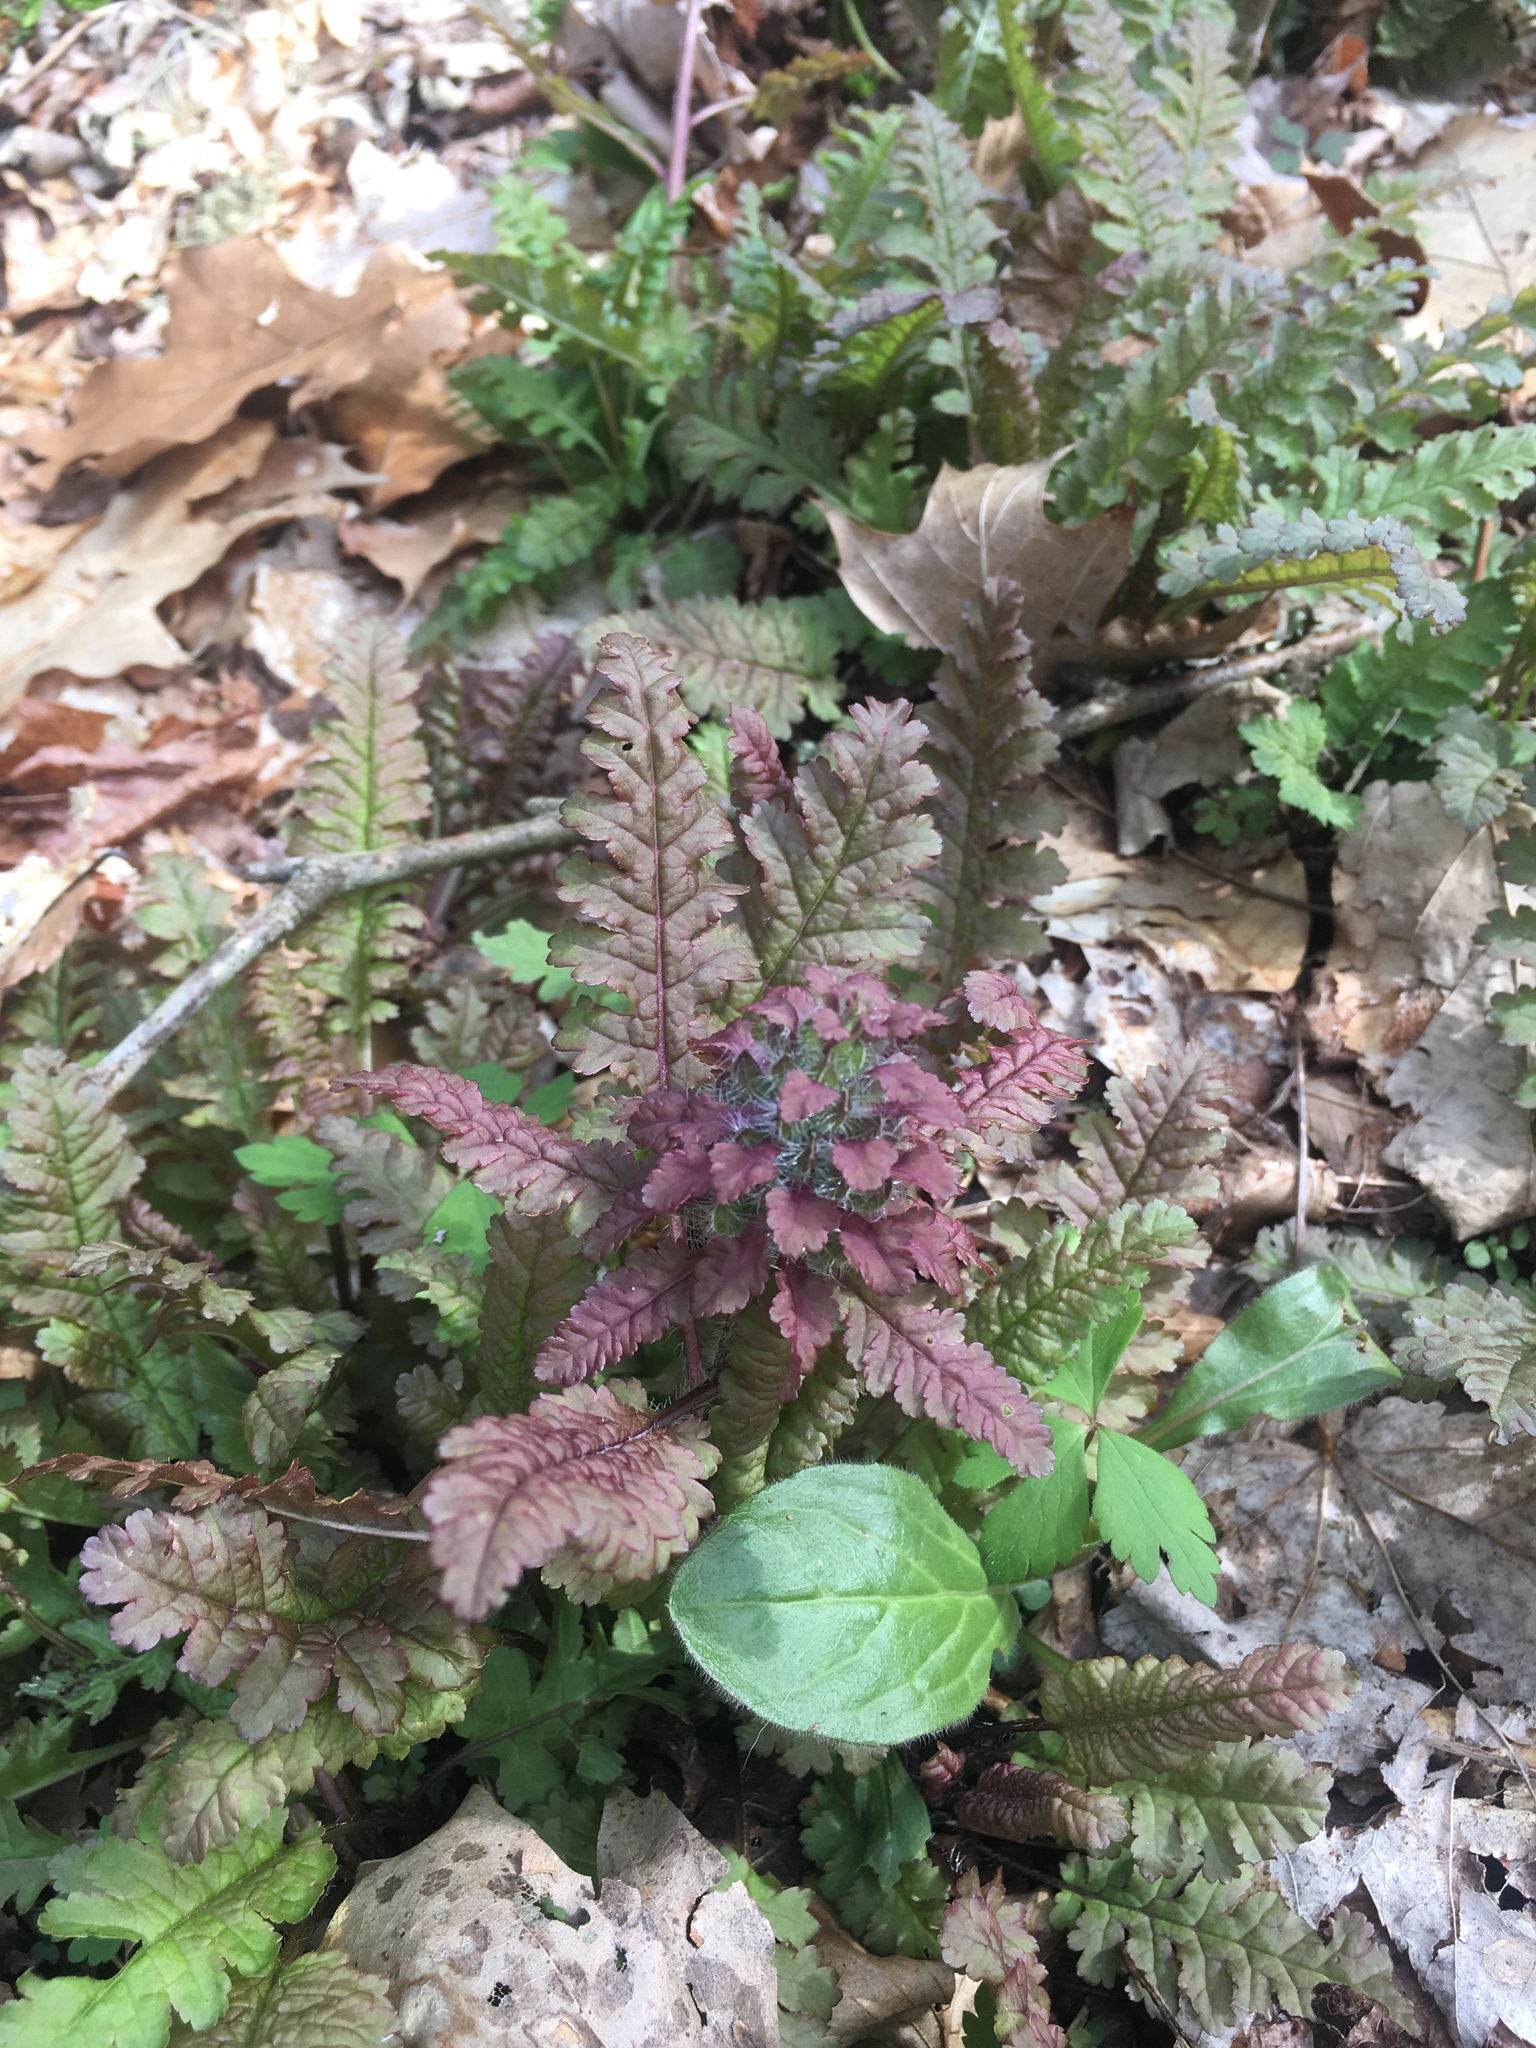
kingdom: Plantae
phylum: Tracheophyta
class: Magnoliopsida
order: Lamiales
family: Orobanchaceae
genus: Pedicularis
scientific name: Pedicularis canadensis
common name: Early lousewort
